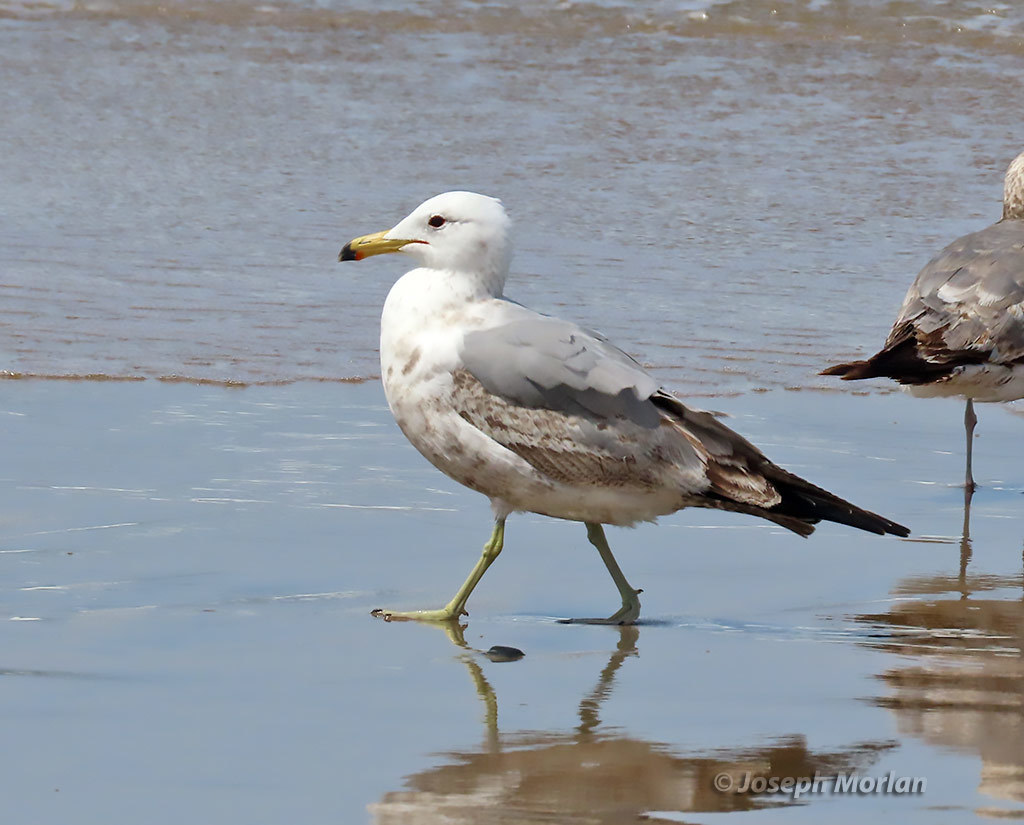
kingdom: Animalia
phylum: Chordata
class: Aves
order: Charadriiformes
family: Laridae
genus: Larus
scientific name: Larus californicus
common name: California gull
